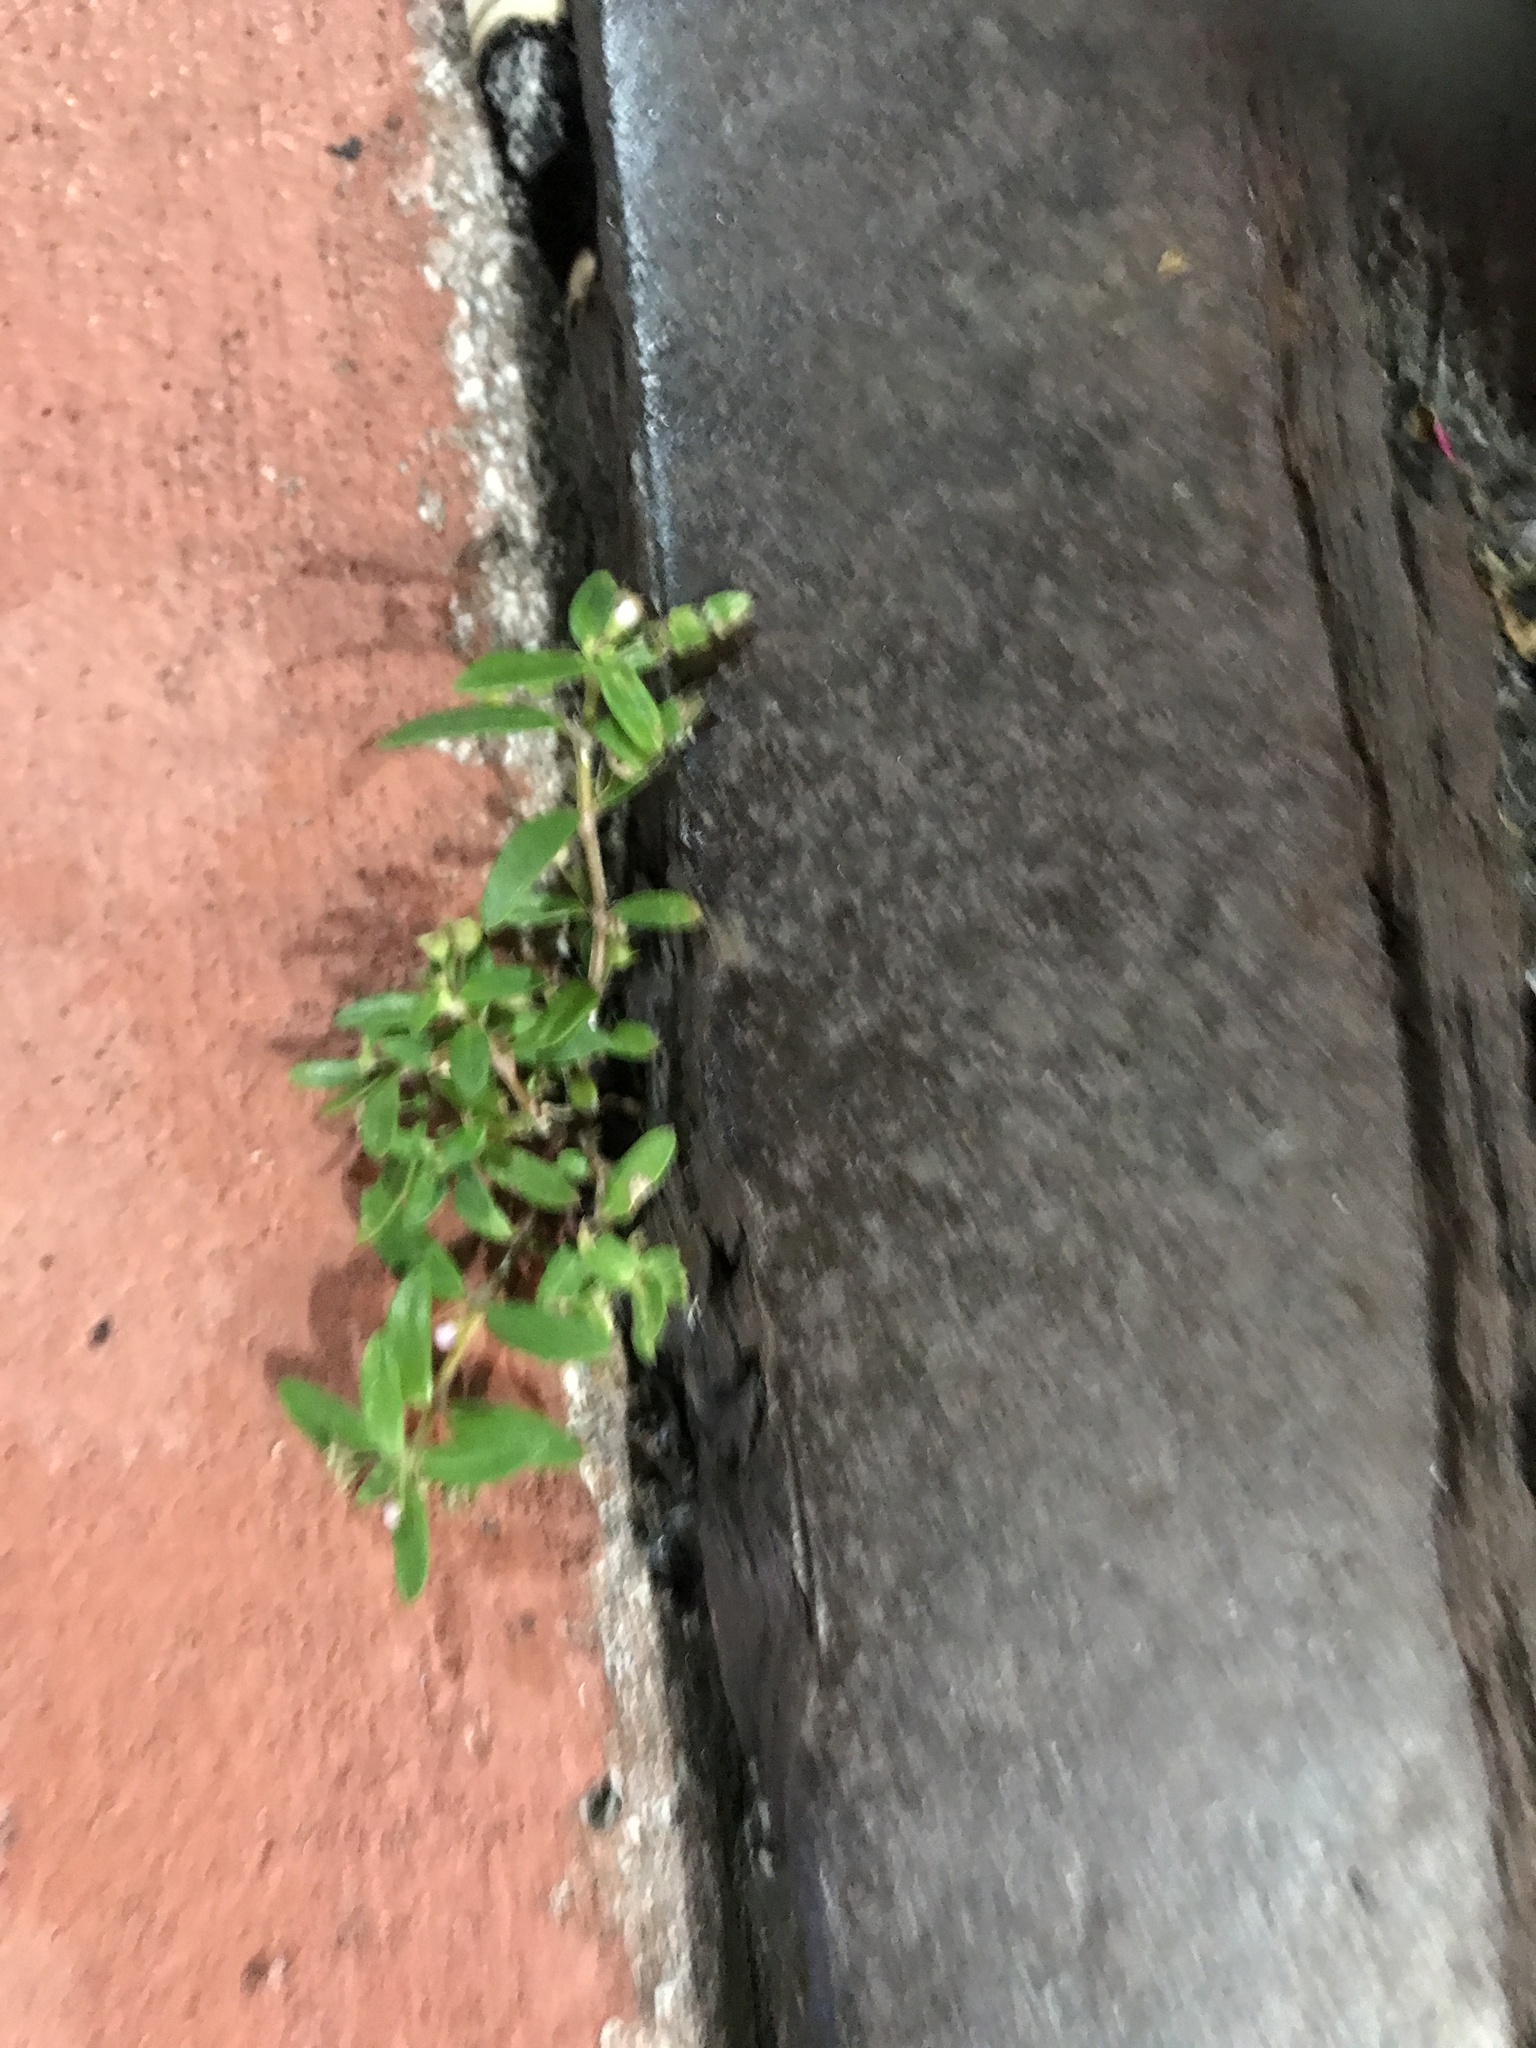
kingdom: Plantae
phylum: Tracheophyta
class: Magnoliopsida
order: Gentianales
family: Rubiaceae
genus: Oldenlandia
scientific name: Oldenlandia corymbosa
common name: Flat-top mille graines
